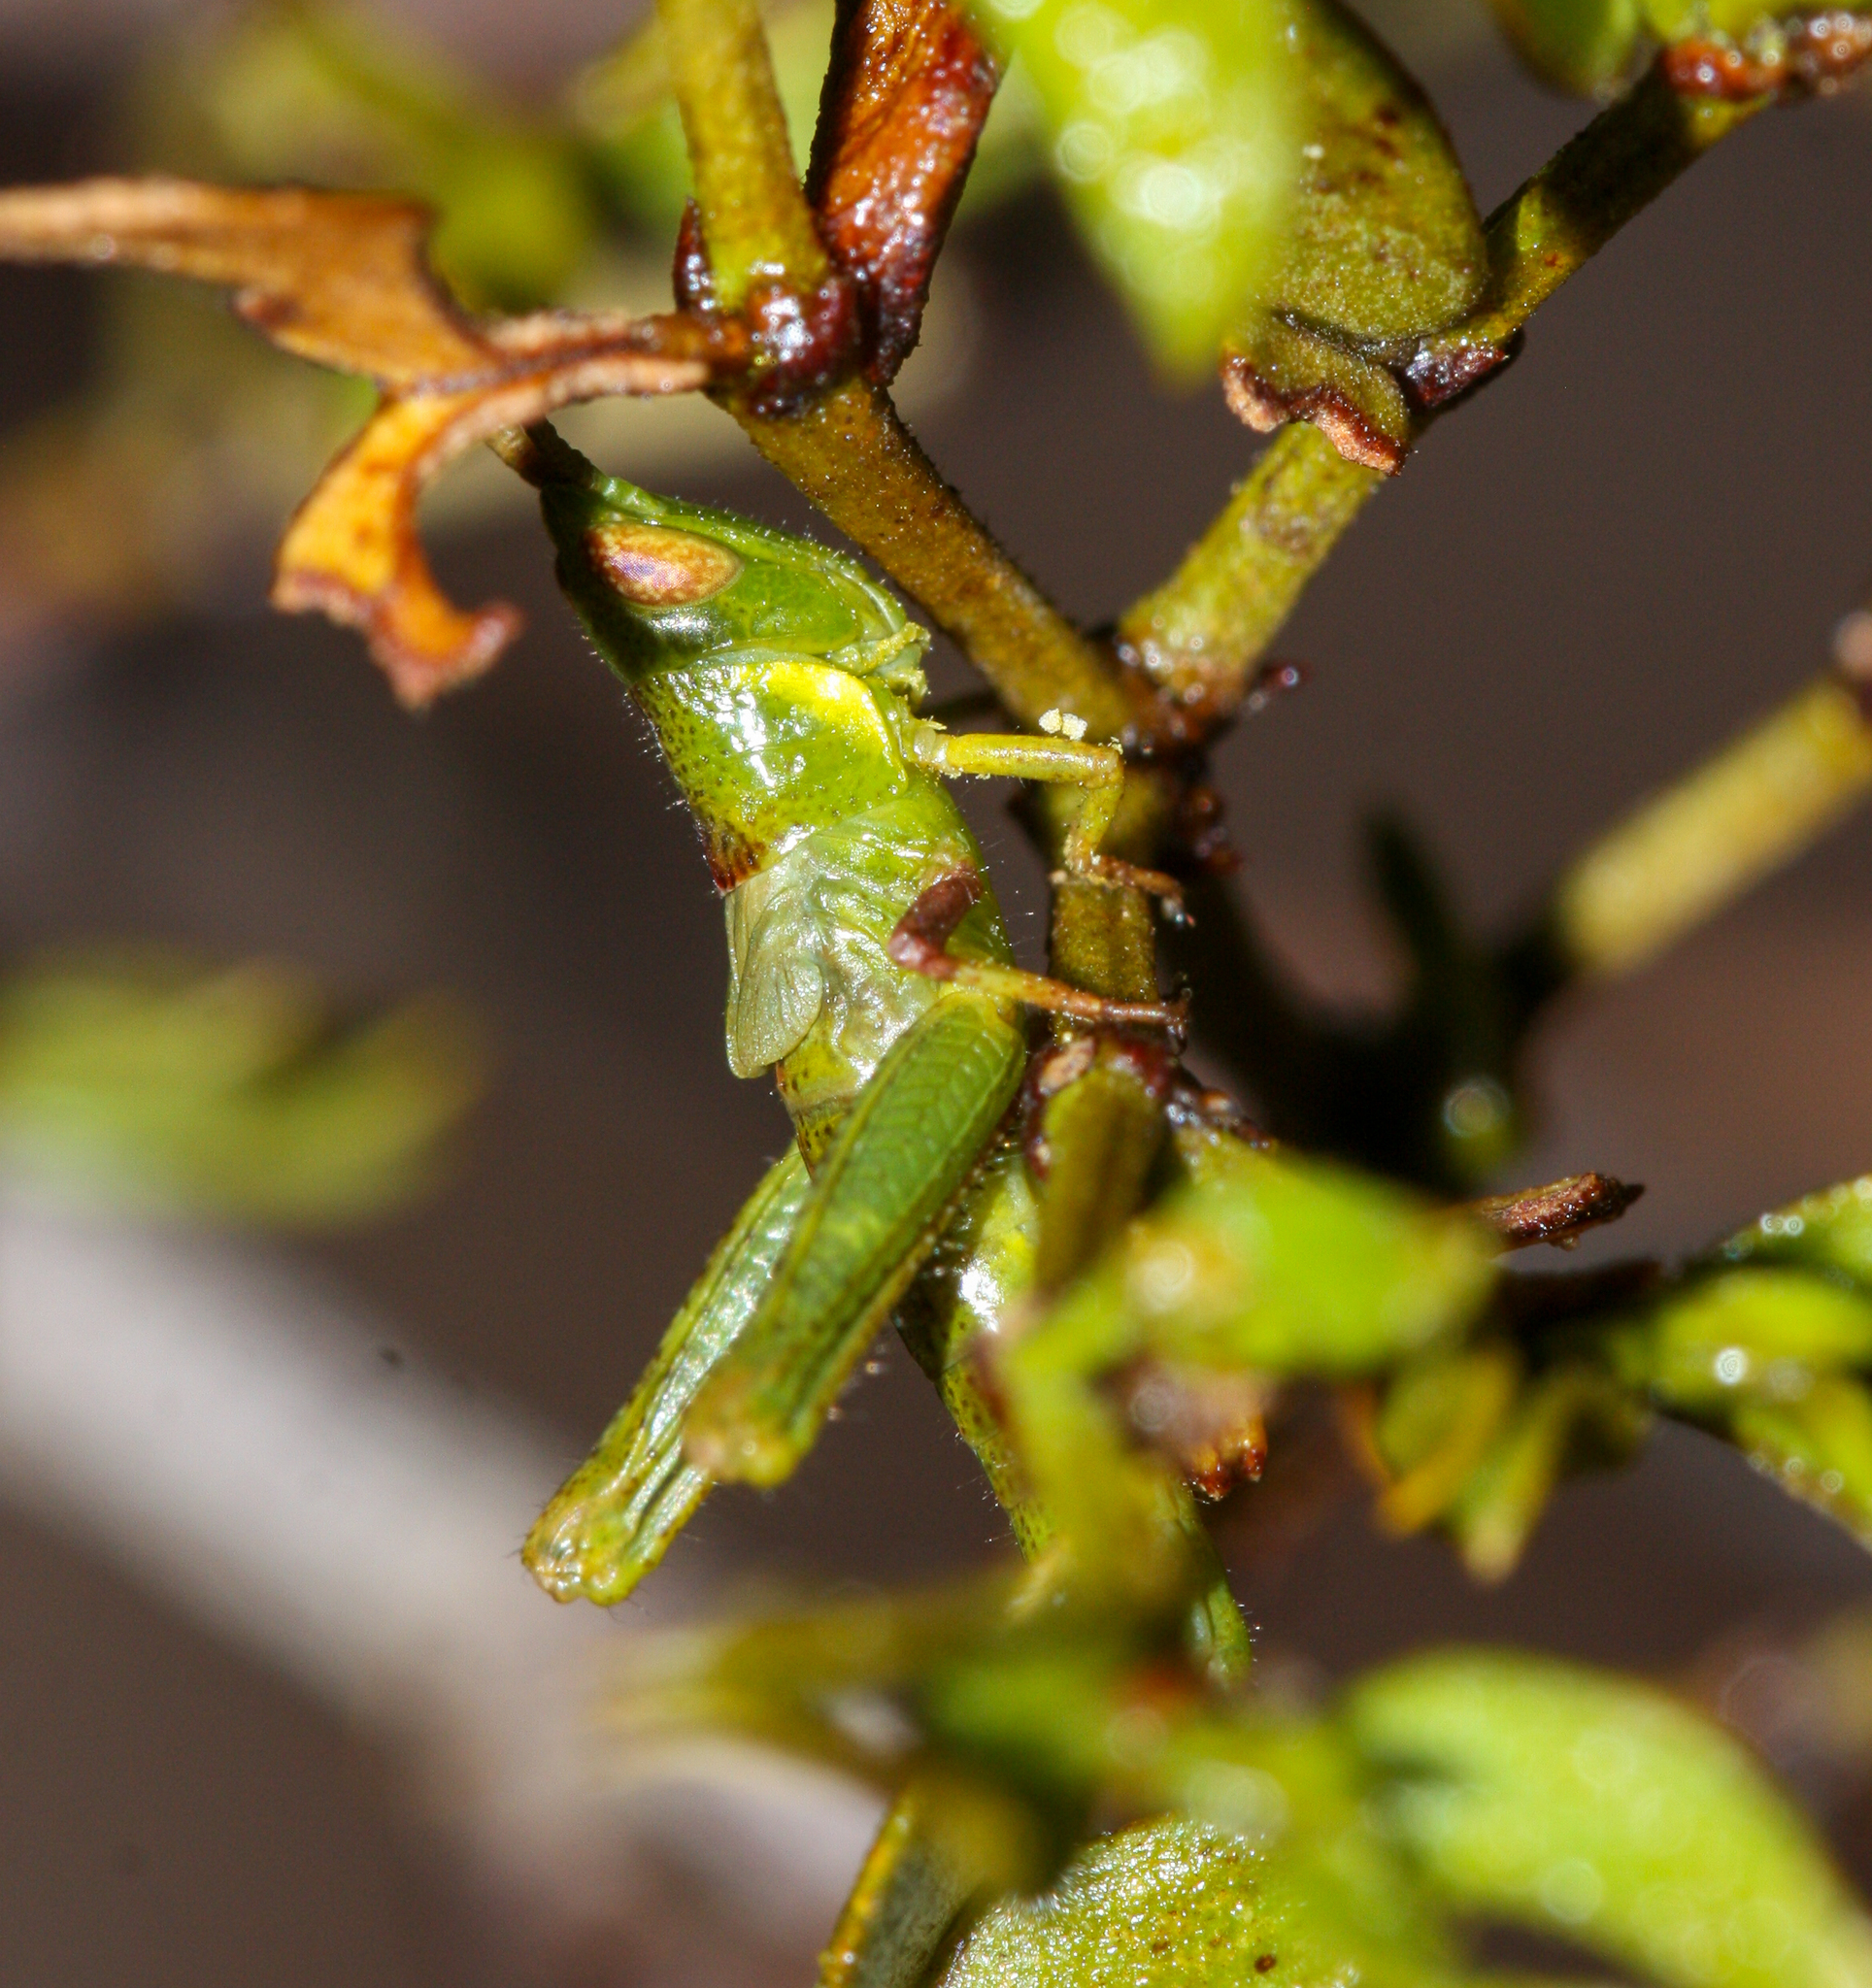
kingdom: Animalia
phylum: Arthropoda
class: Insecta
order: Orthoptera
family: Acrididae
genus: Bootettix
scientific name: Bootettix argentatus
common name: Creosote bush grasshopper
